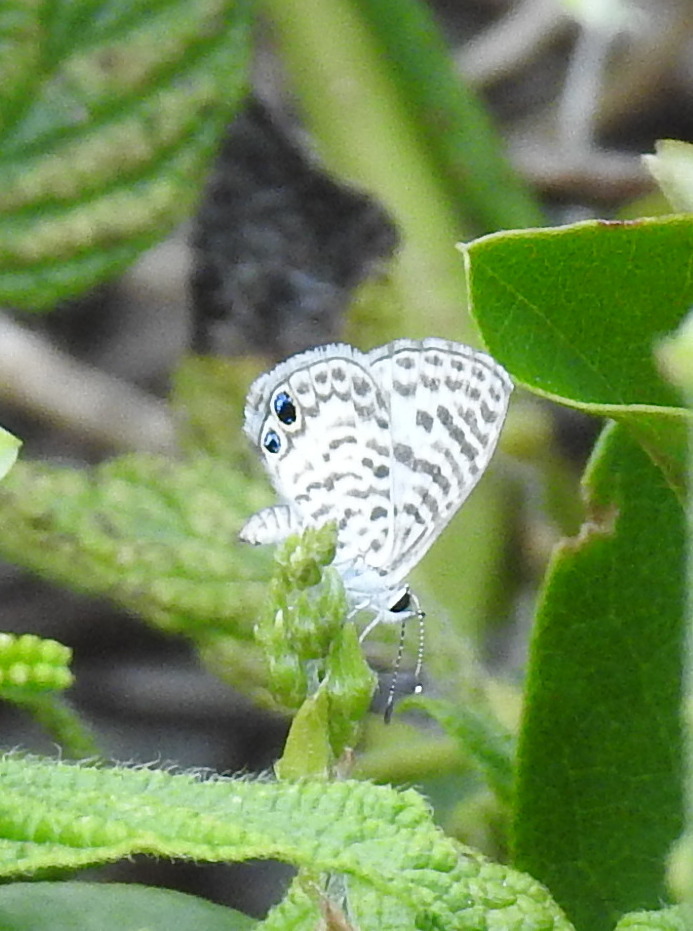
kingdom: Animalia
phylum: Arthropoda
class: Insecta
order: Lepidoptera
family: Lycaenidae
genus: Leptotes
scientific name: Leptotes cassius
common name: Cassius blue
